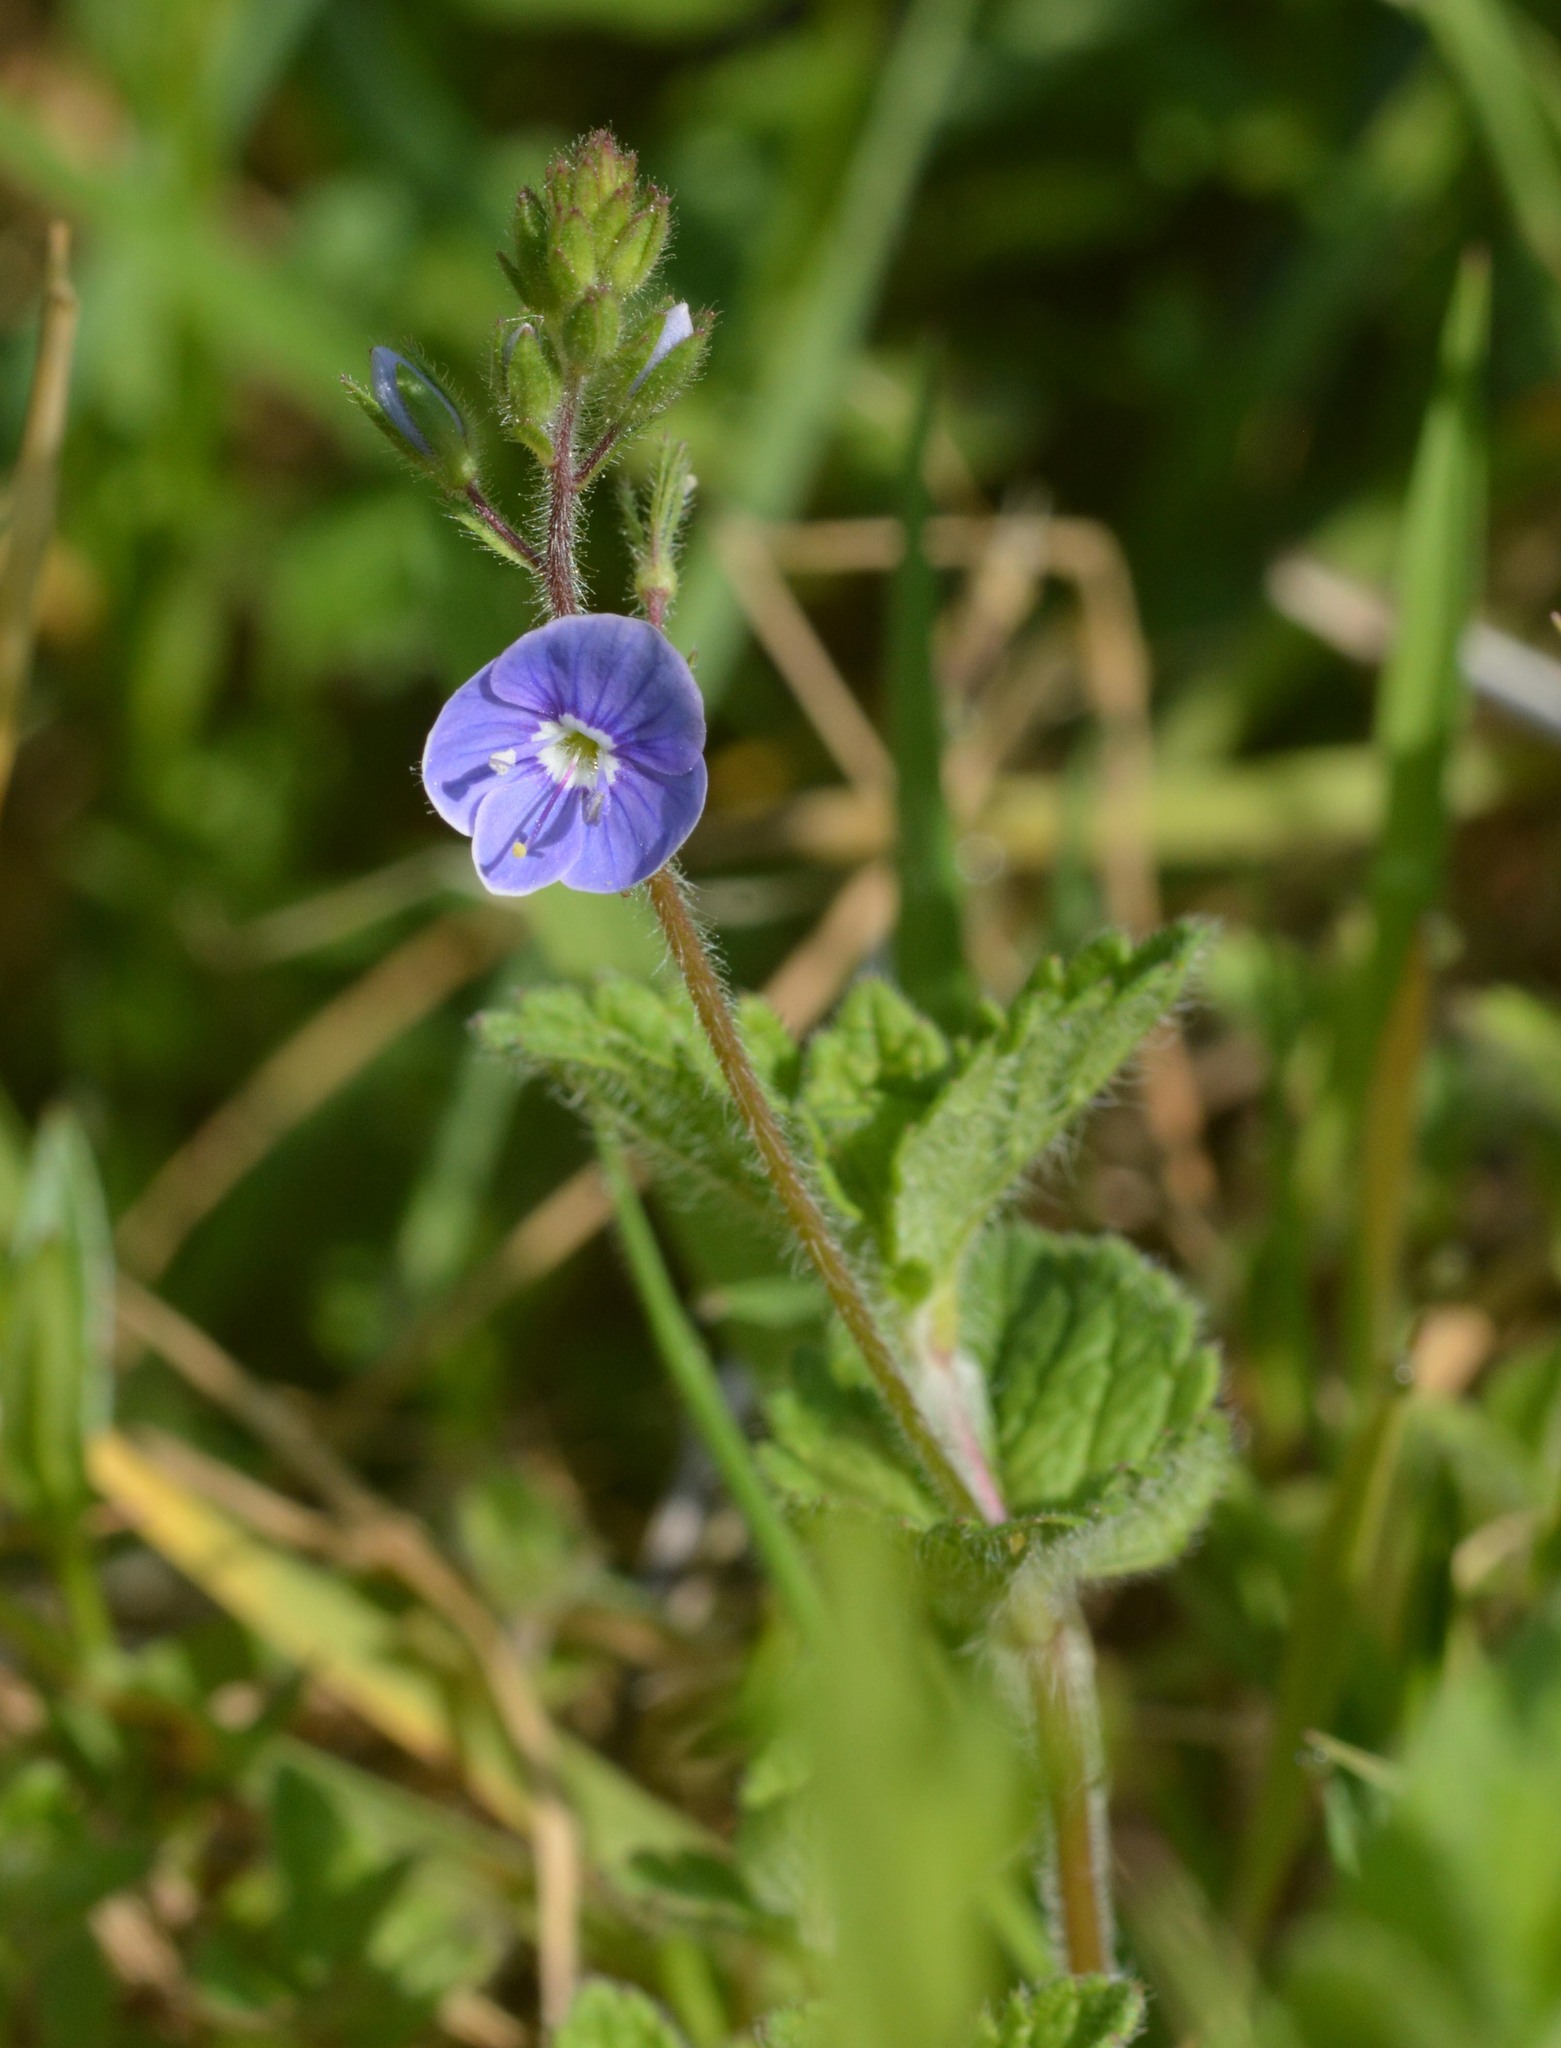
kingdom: Plantae
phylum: Tracheophyta
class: Magnoliopsida
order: Lamiales
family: Plantaginaceae
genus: Veronica
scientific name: Veronica chamaedrys
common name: Germander speedwell
